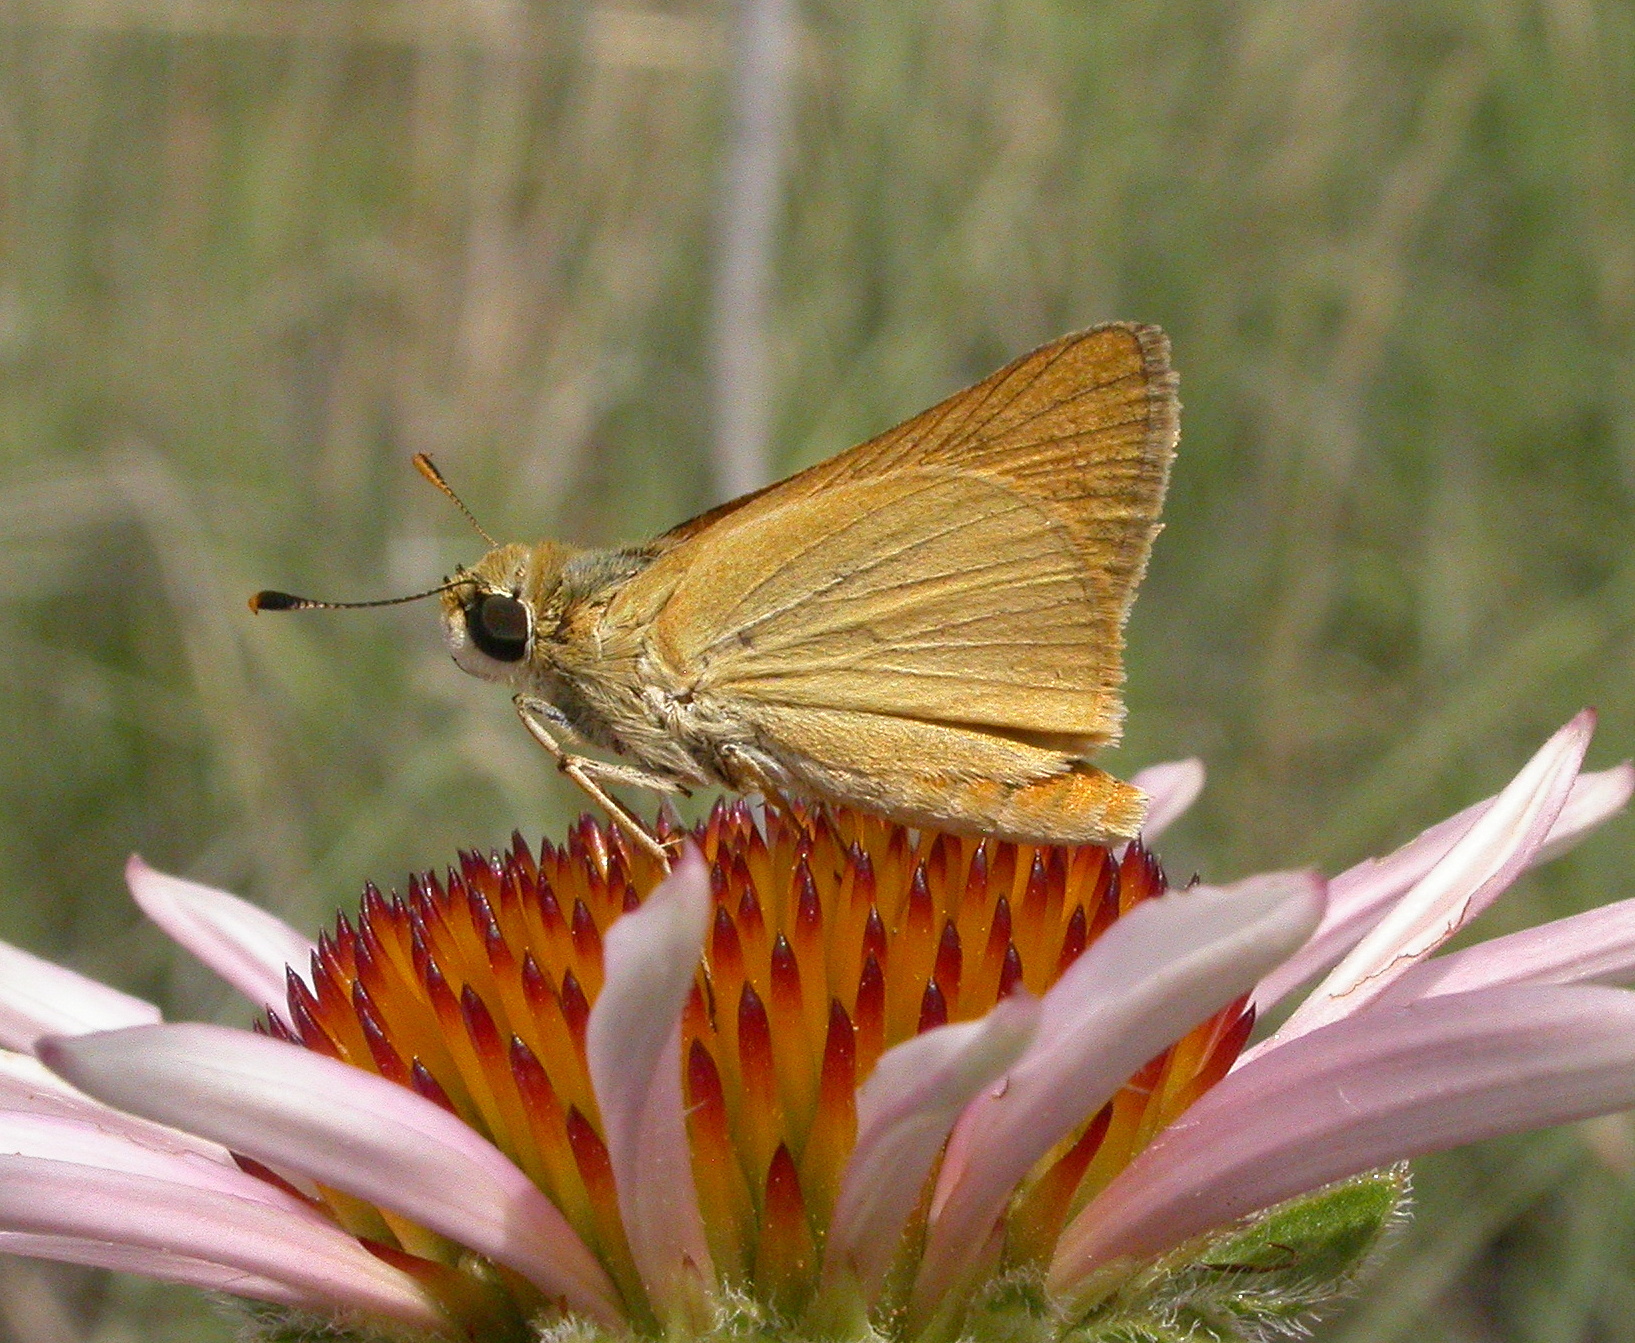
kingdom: Animalia
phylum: Arthropoda
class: Insecta
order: Lepidoptera
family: Hesperiidae
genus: Atrytone
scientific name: Atrytone delaware
